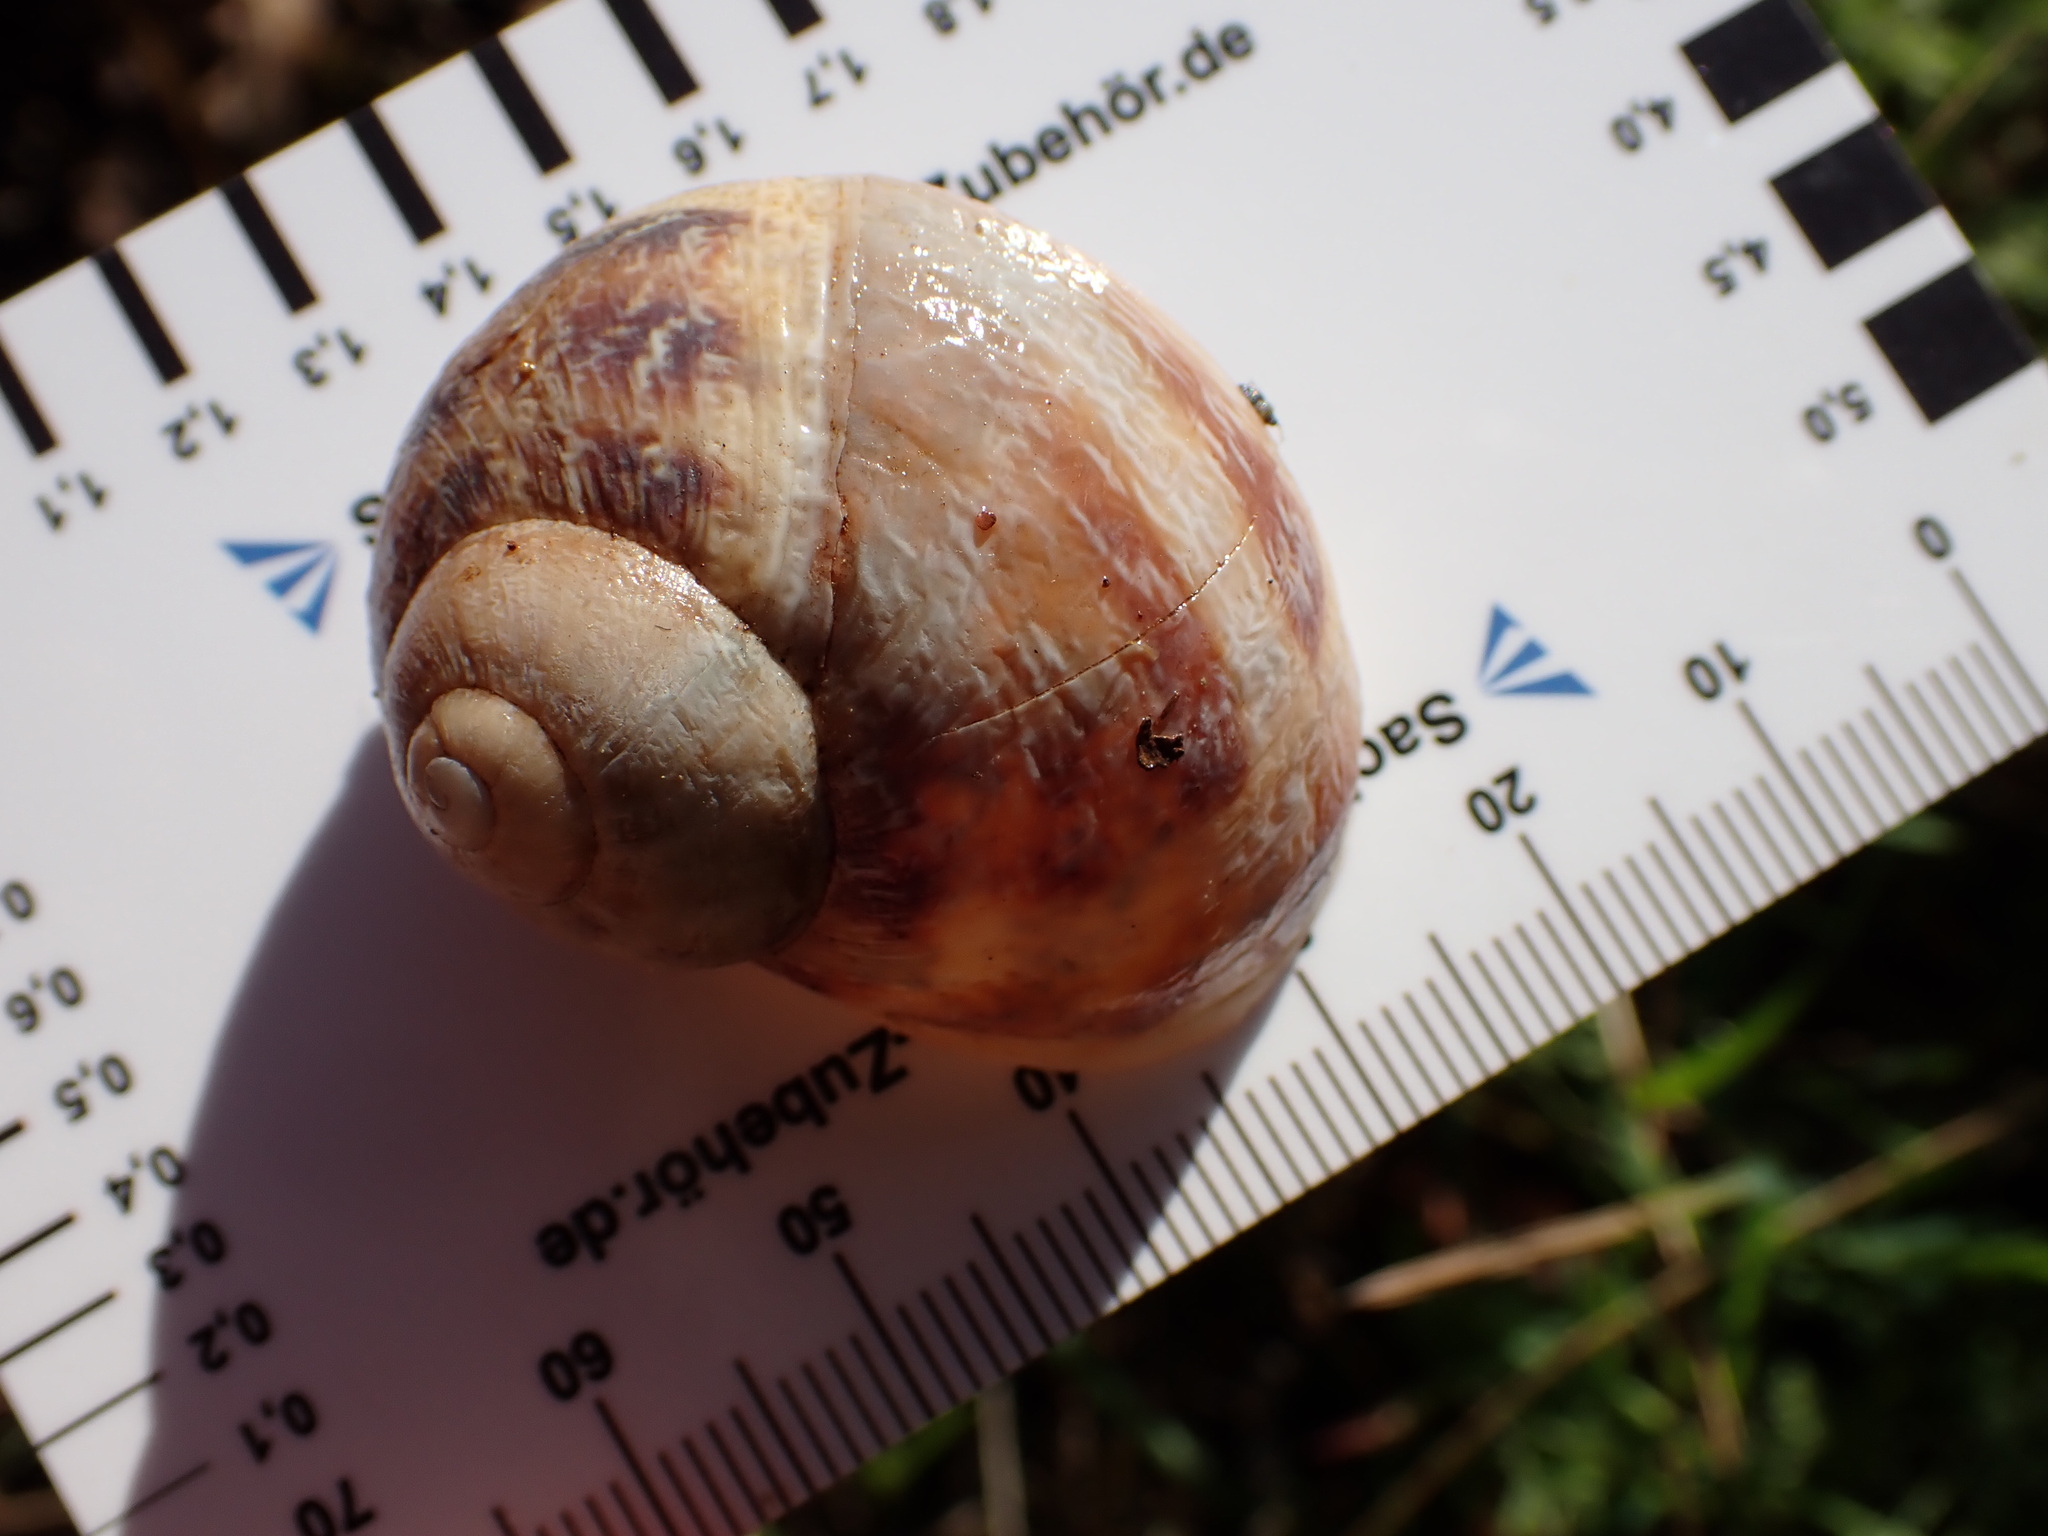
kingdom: Animalia
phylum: Mollusca
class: Gastropoda
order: Stylommatophora
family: Helicidae
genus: Cornu
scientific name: Cornu aspersum
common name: Brown garden snail
